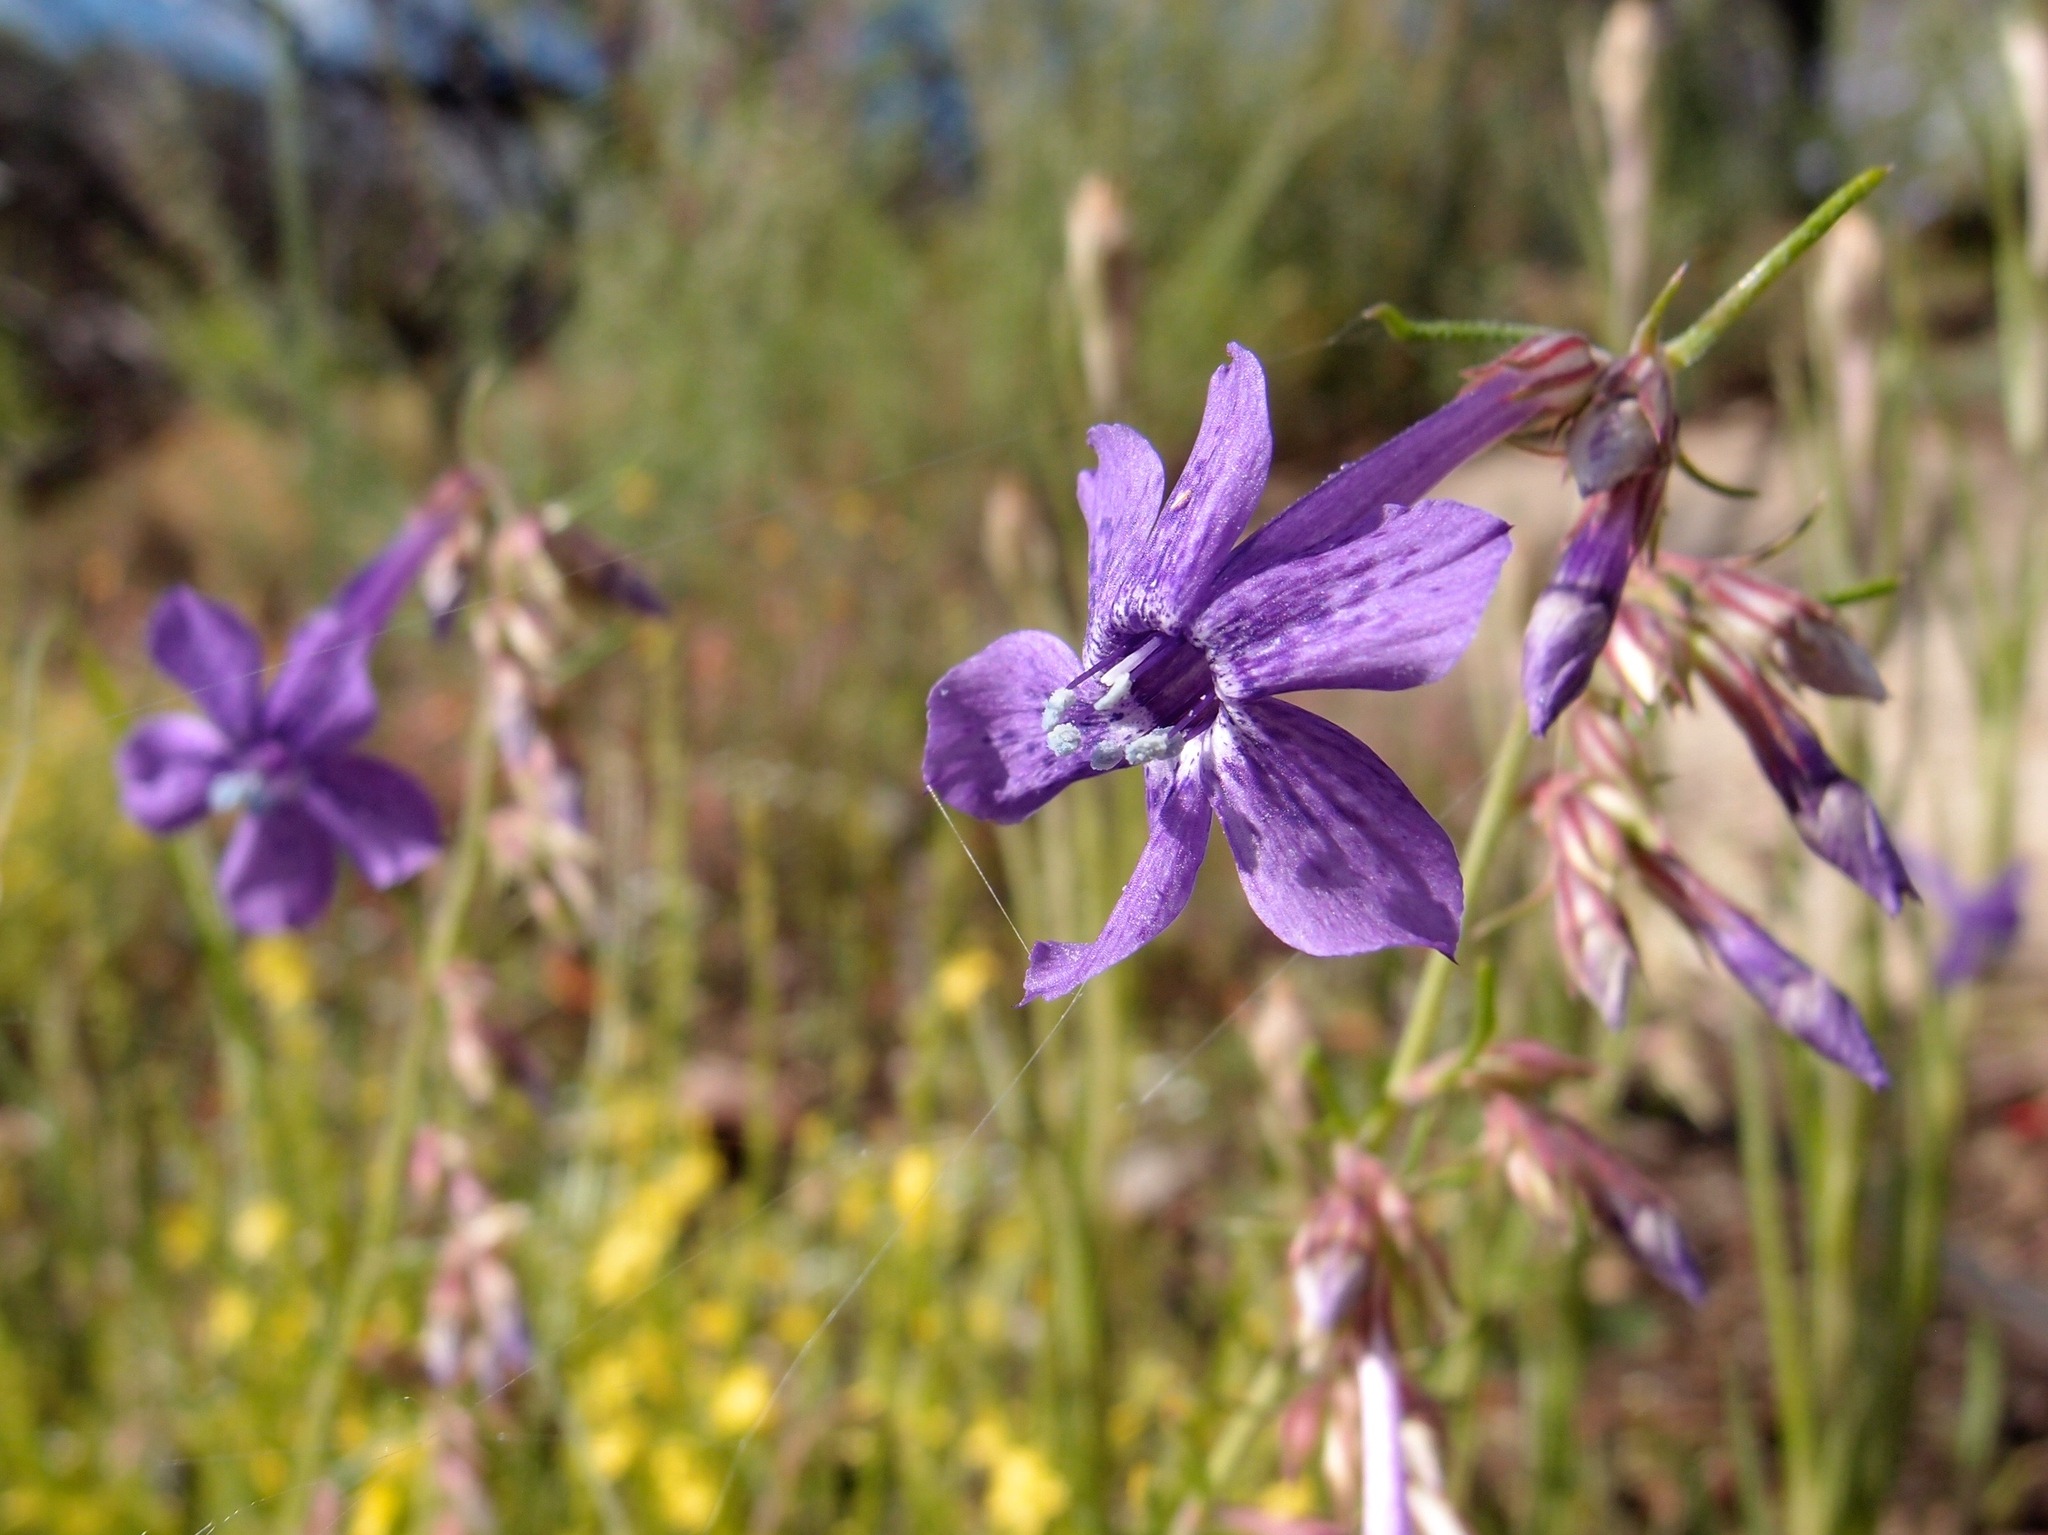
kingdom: Plantae
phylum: Tracheophyta
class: Magnoliopsida
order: Ericales
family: Polemoniaceae
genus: Ipomopsis
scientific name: Ipomopsis thurberi
